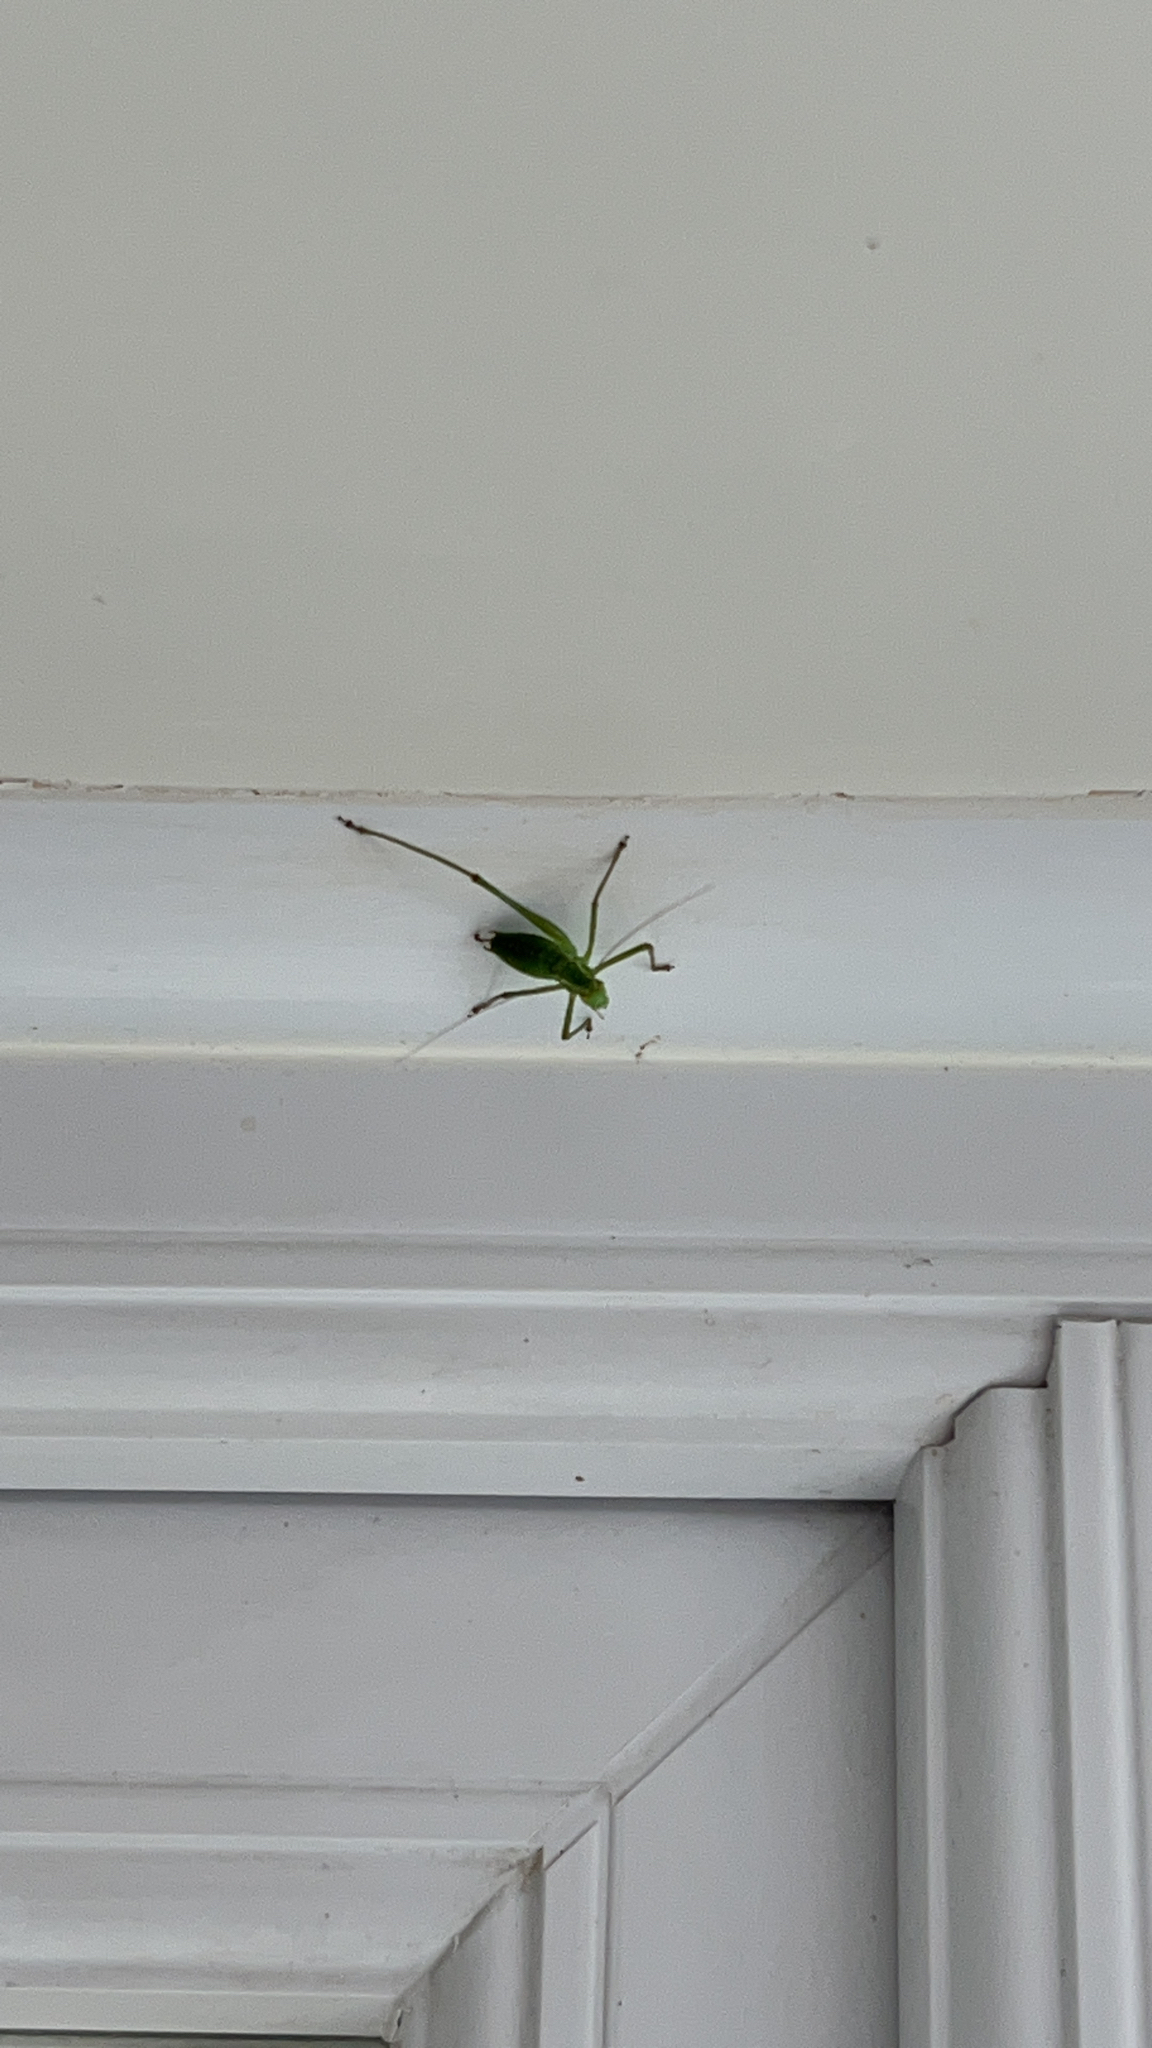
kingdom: Animalia
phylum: Arthropoda
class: Insecta
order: Orthoptera
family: Tettigoniidae
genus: Leptophyes
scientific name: Leptophyes punctatissima
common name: Speckled bush-cricket
